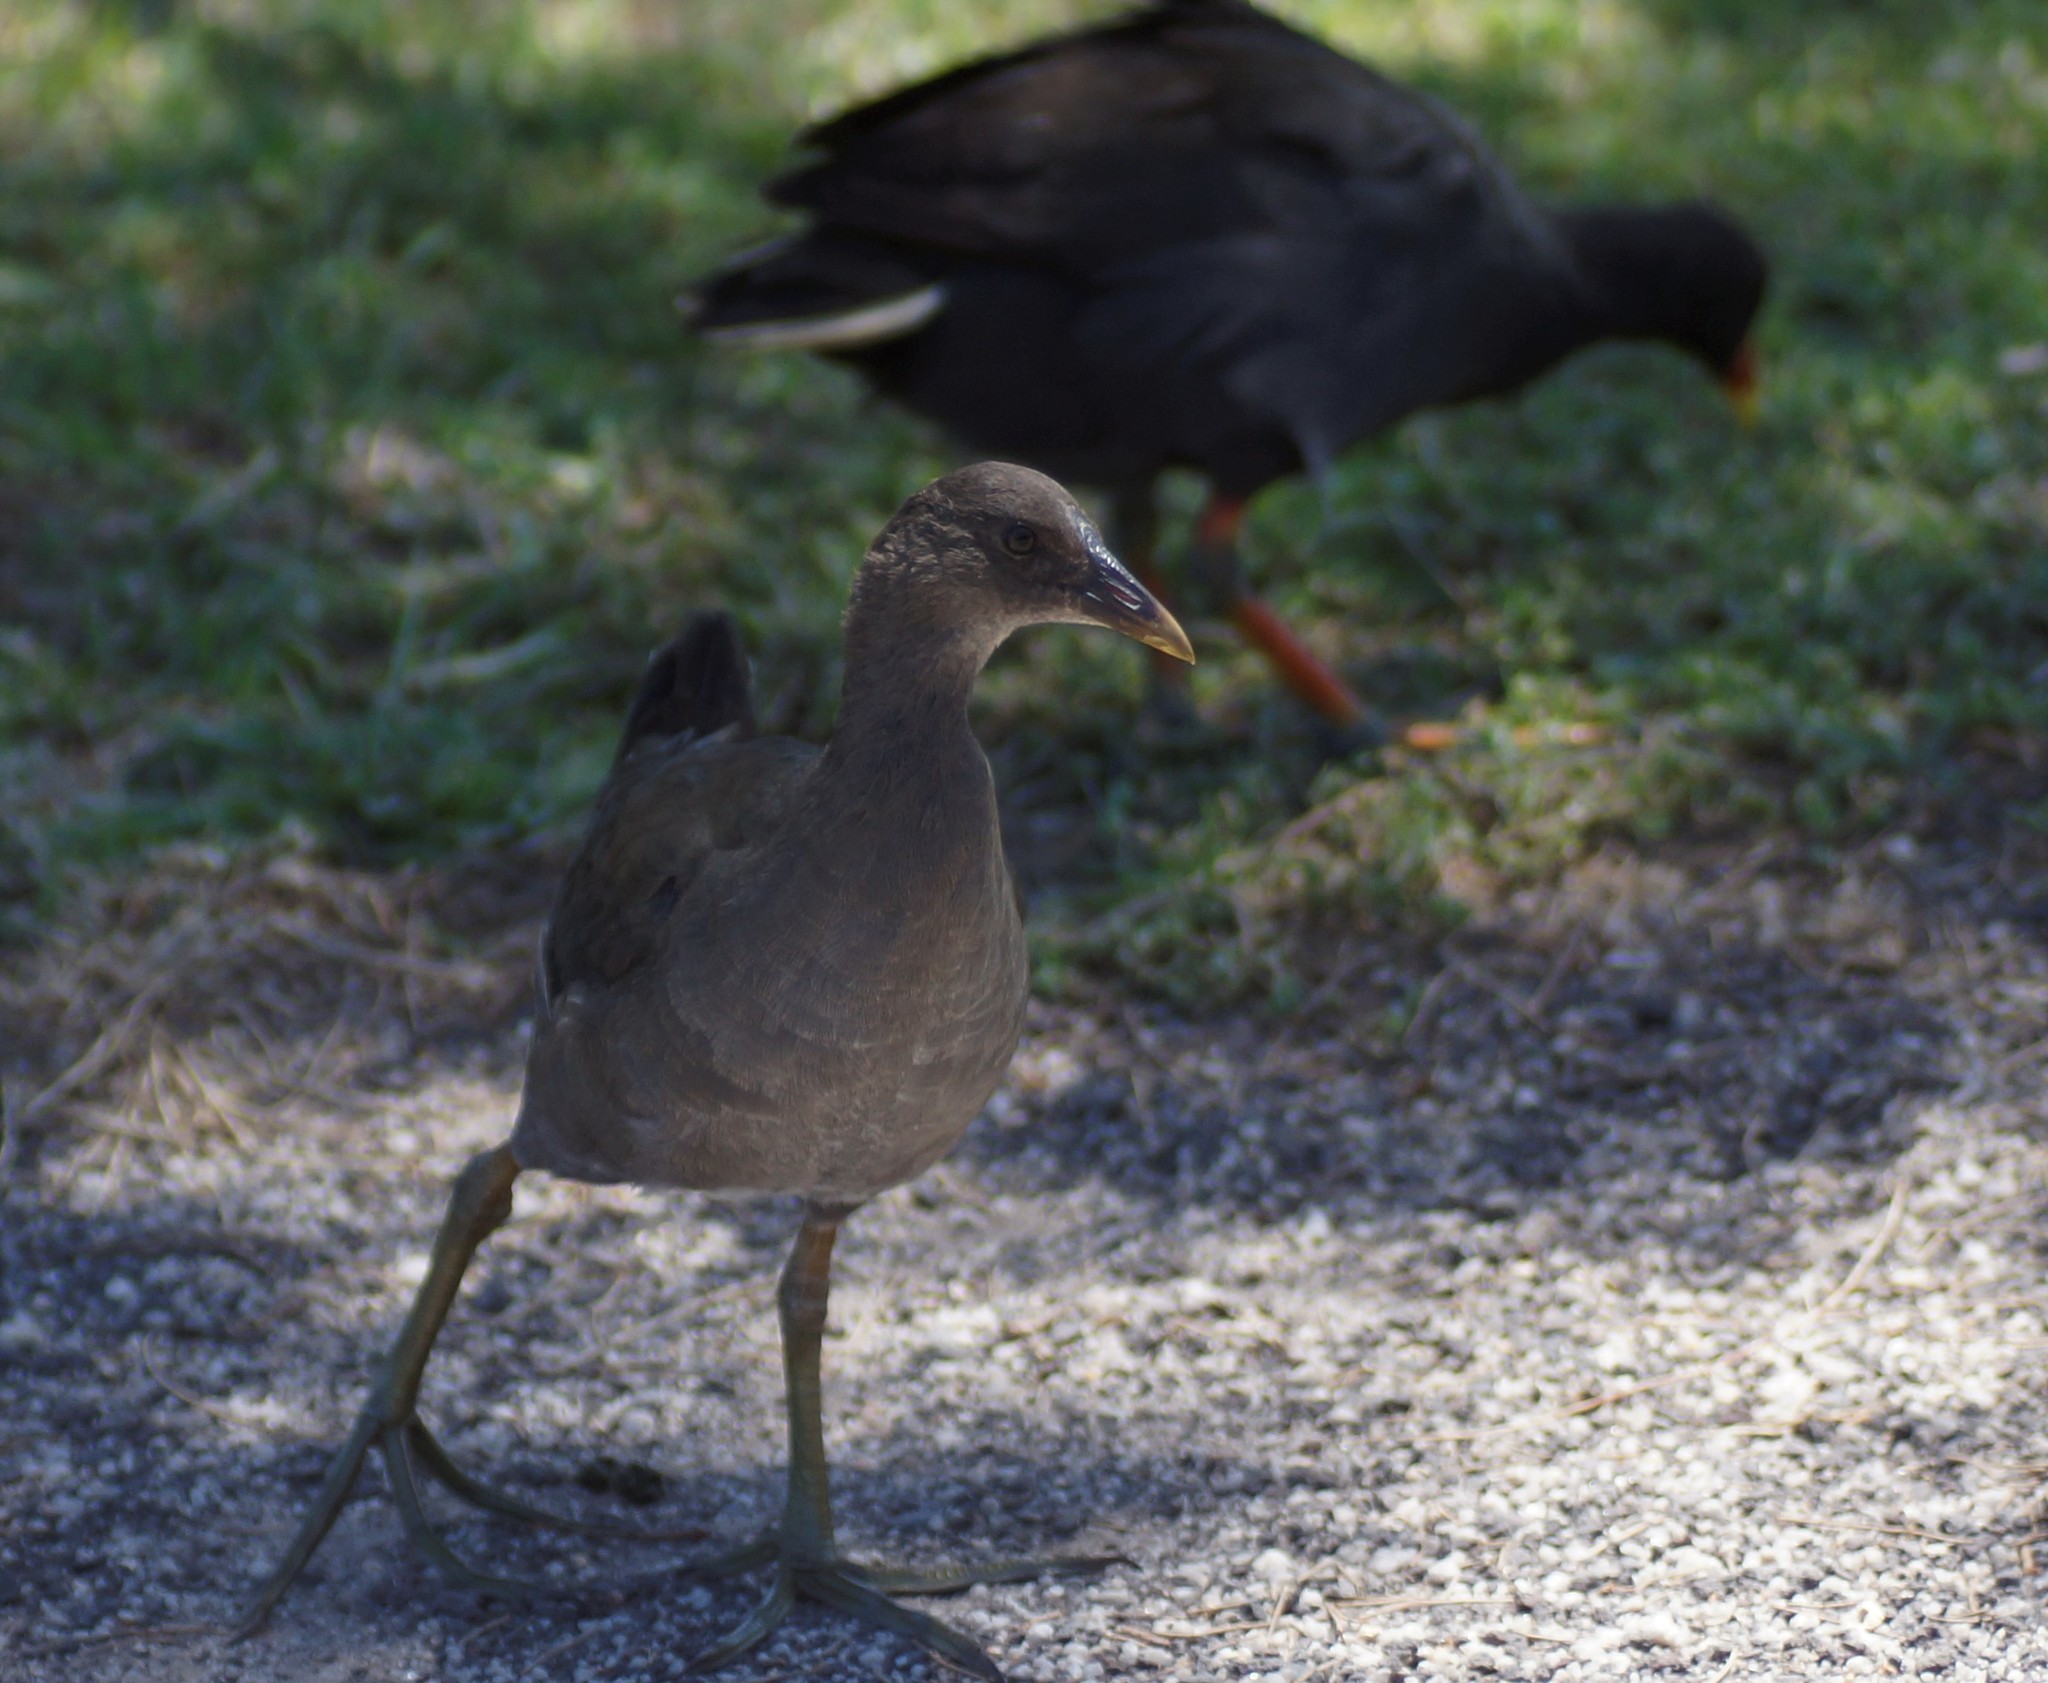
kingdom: Animalia
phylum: Chordata
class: Aves
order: Gruiformes
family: Rallidae
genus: Gallinula
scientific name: Gallinula tenebrosa
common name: Dusky moorhen
